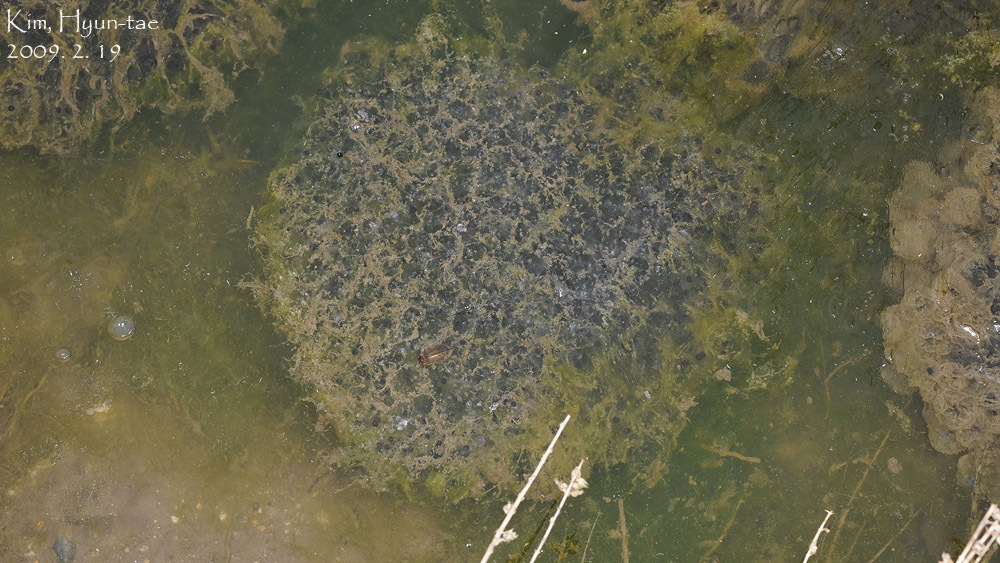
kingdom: Animalia
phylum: Chordata
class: Amphibia
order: Anura
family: Ranidae
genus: Rana
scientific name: Rana uenoi
